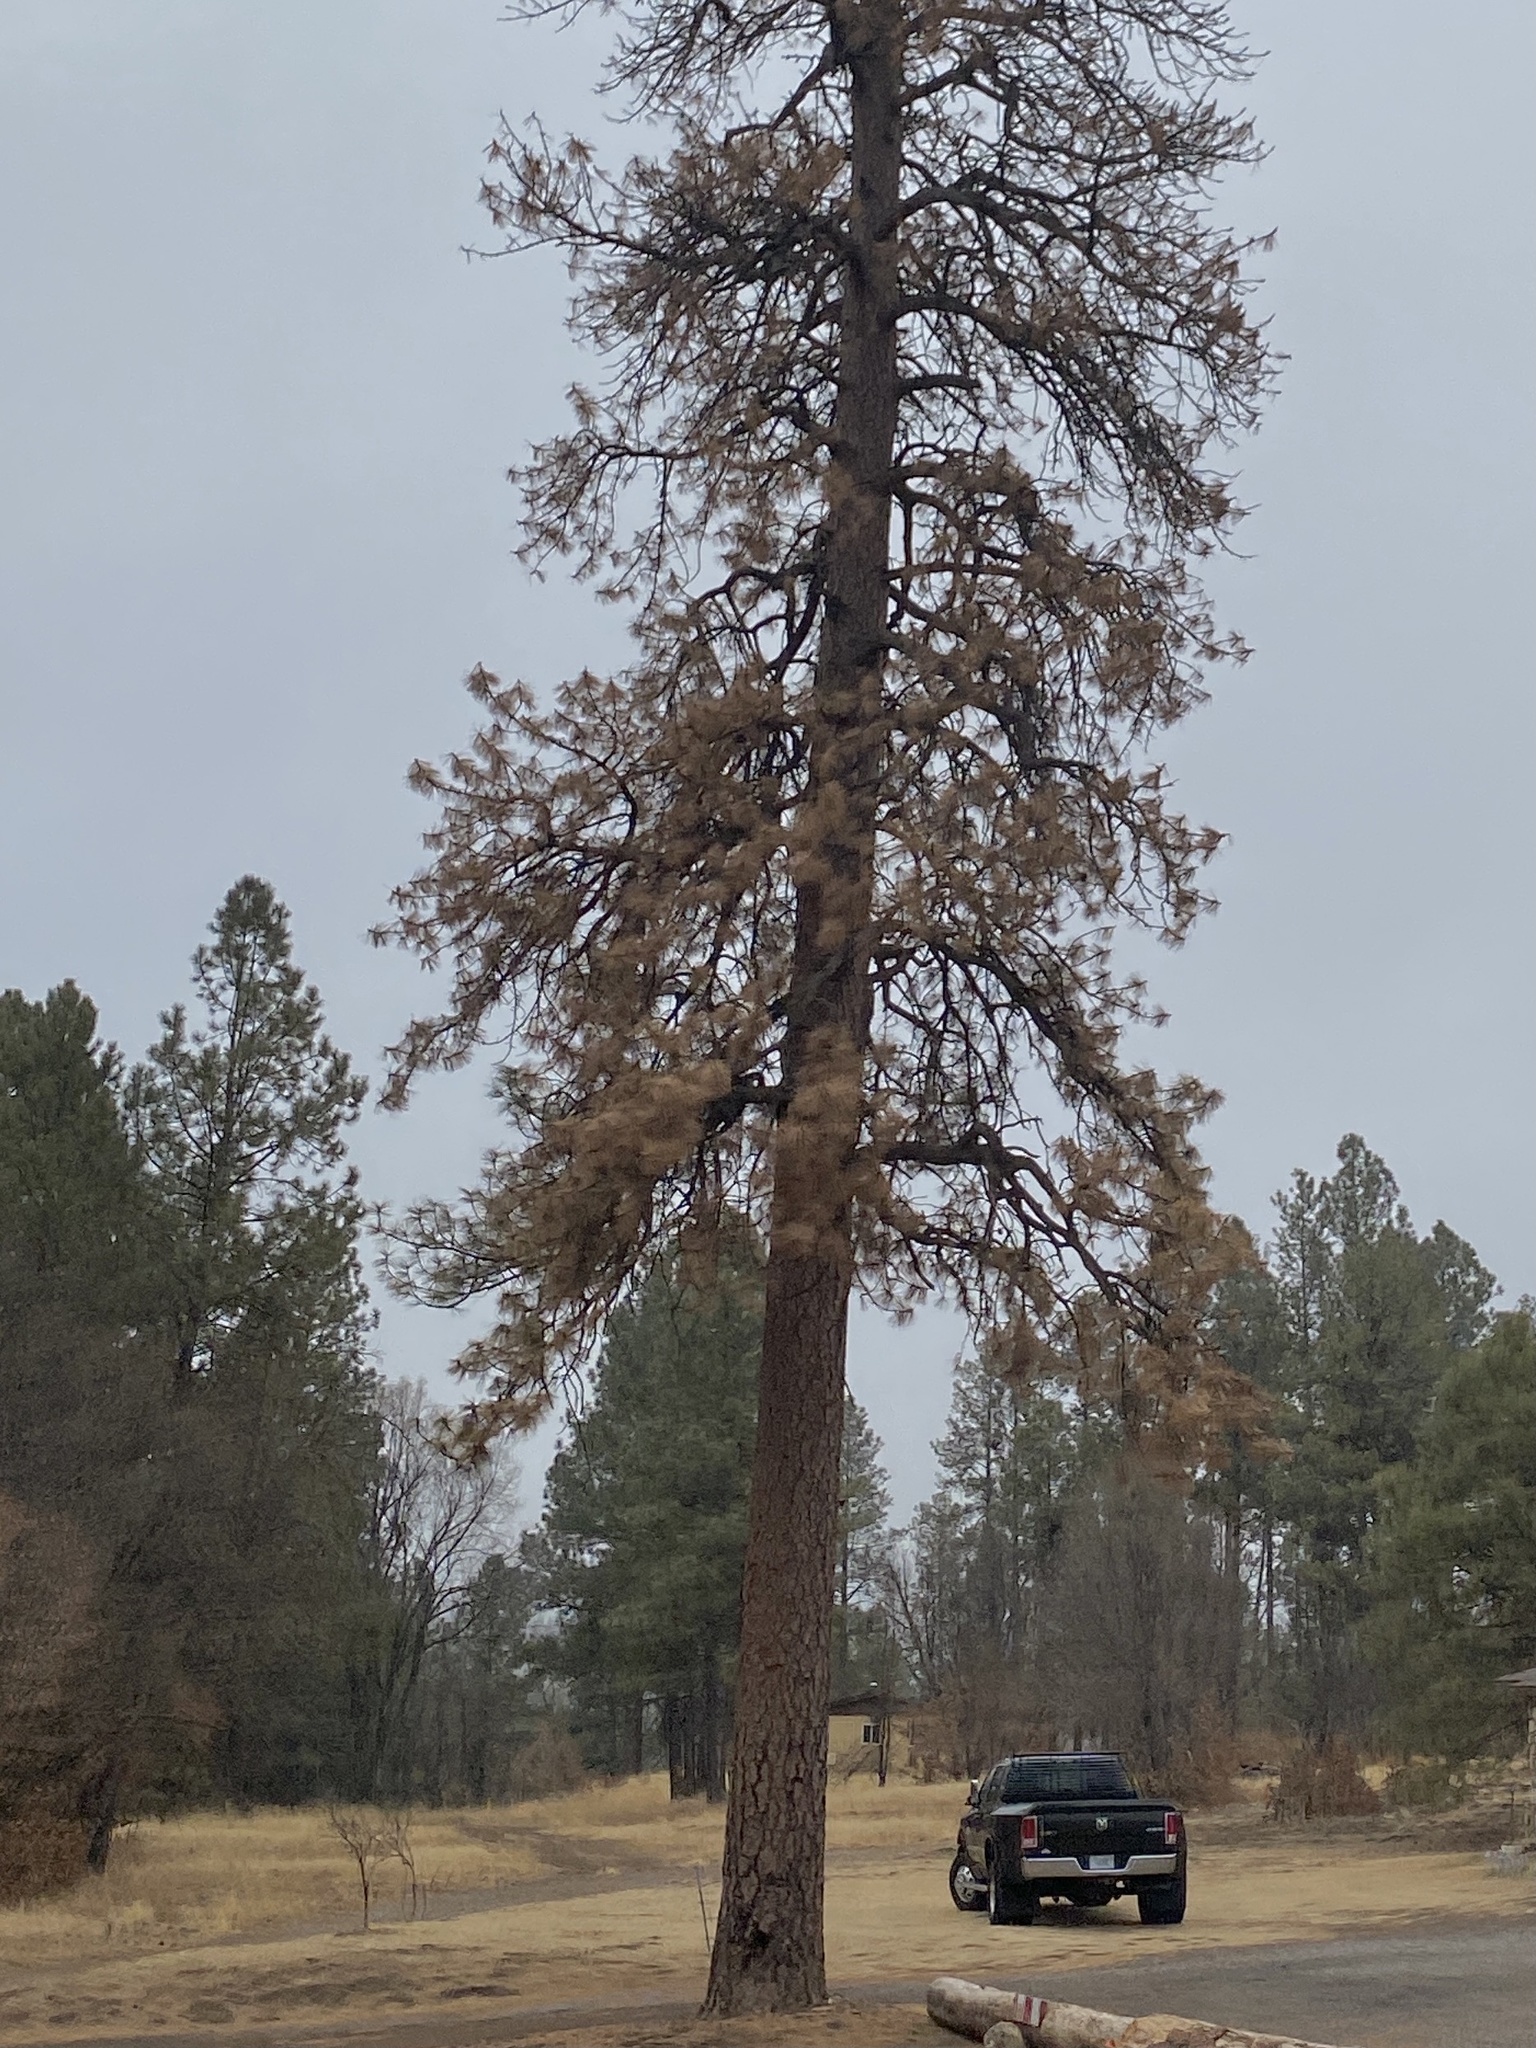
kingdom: Plantae
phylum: Tracheophyta
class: Pinopsida
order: Pinales
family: Pinaceae
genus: Pinus
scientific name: Pinus ponderosa
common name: Western yellow-pine
